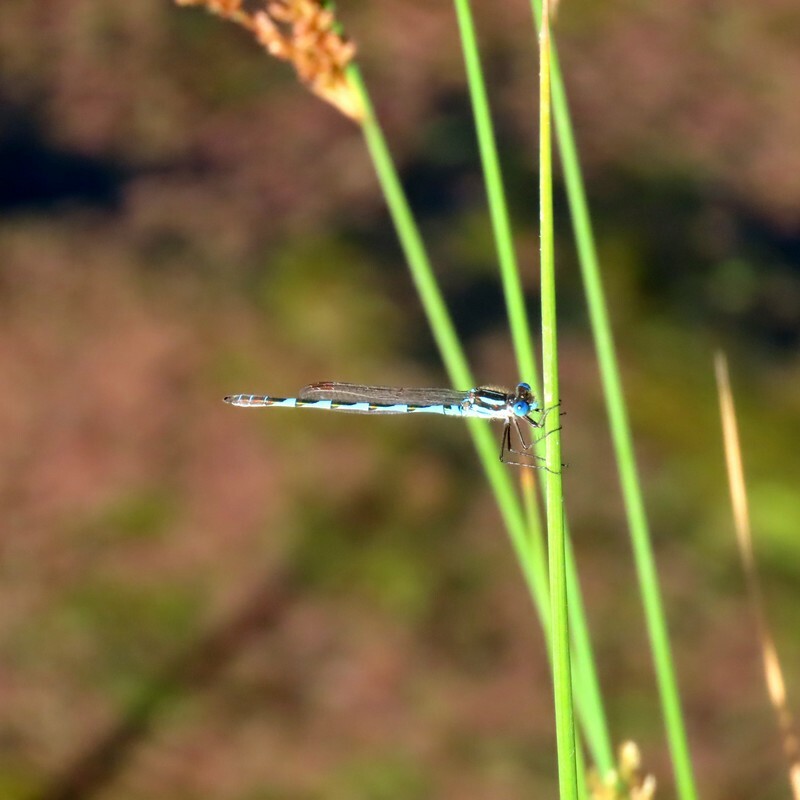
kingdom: Animalia
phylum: Arthropoda
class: Insecta
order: Odonata
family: Lestidae
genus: Austrolestes
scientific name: Austrolestes annulosus
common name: Blue ringtail
